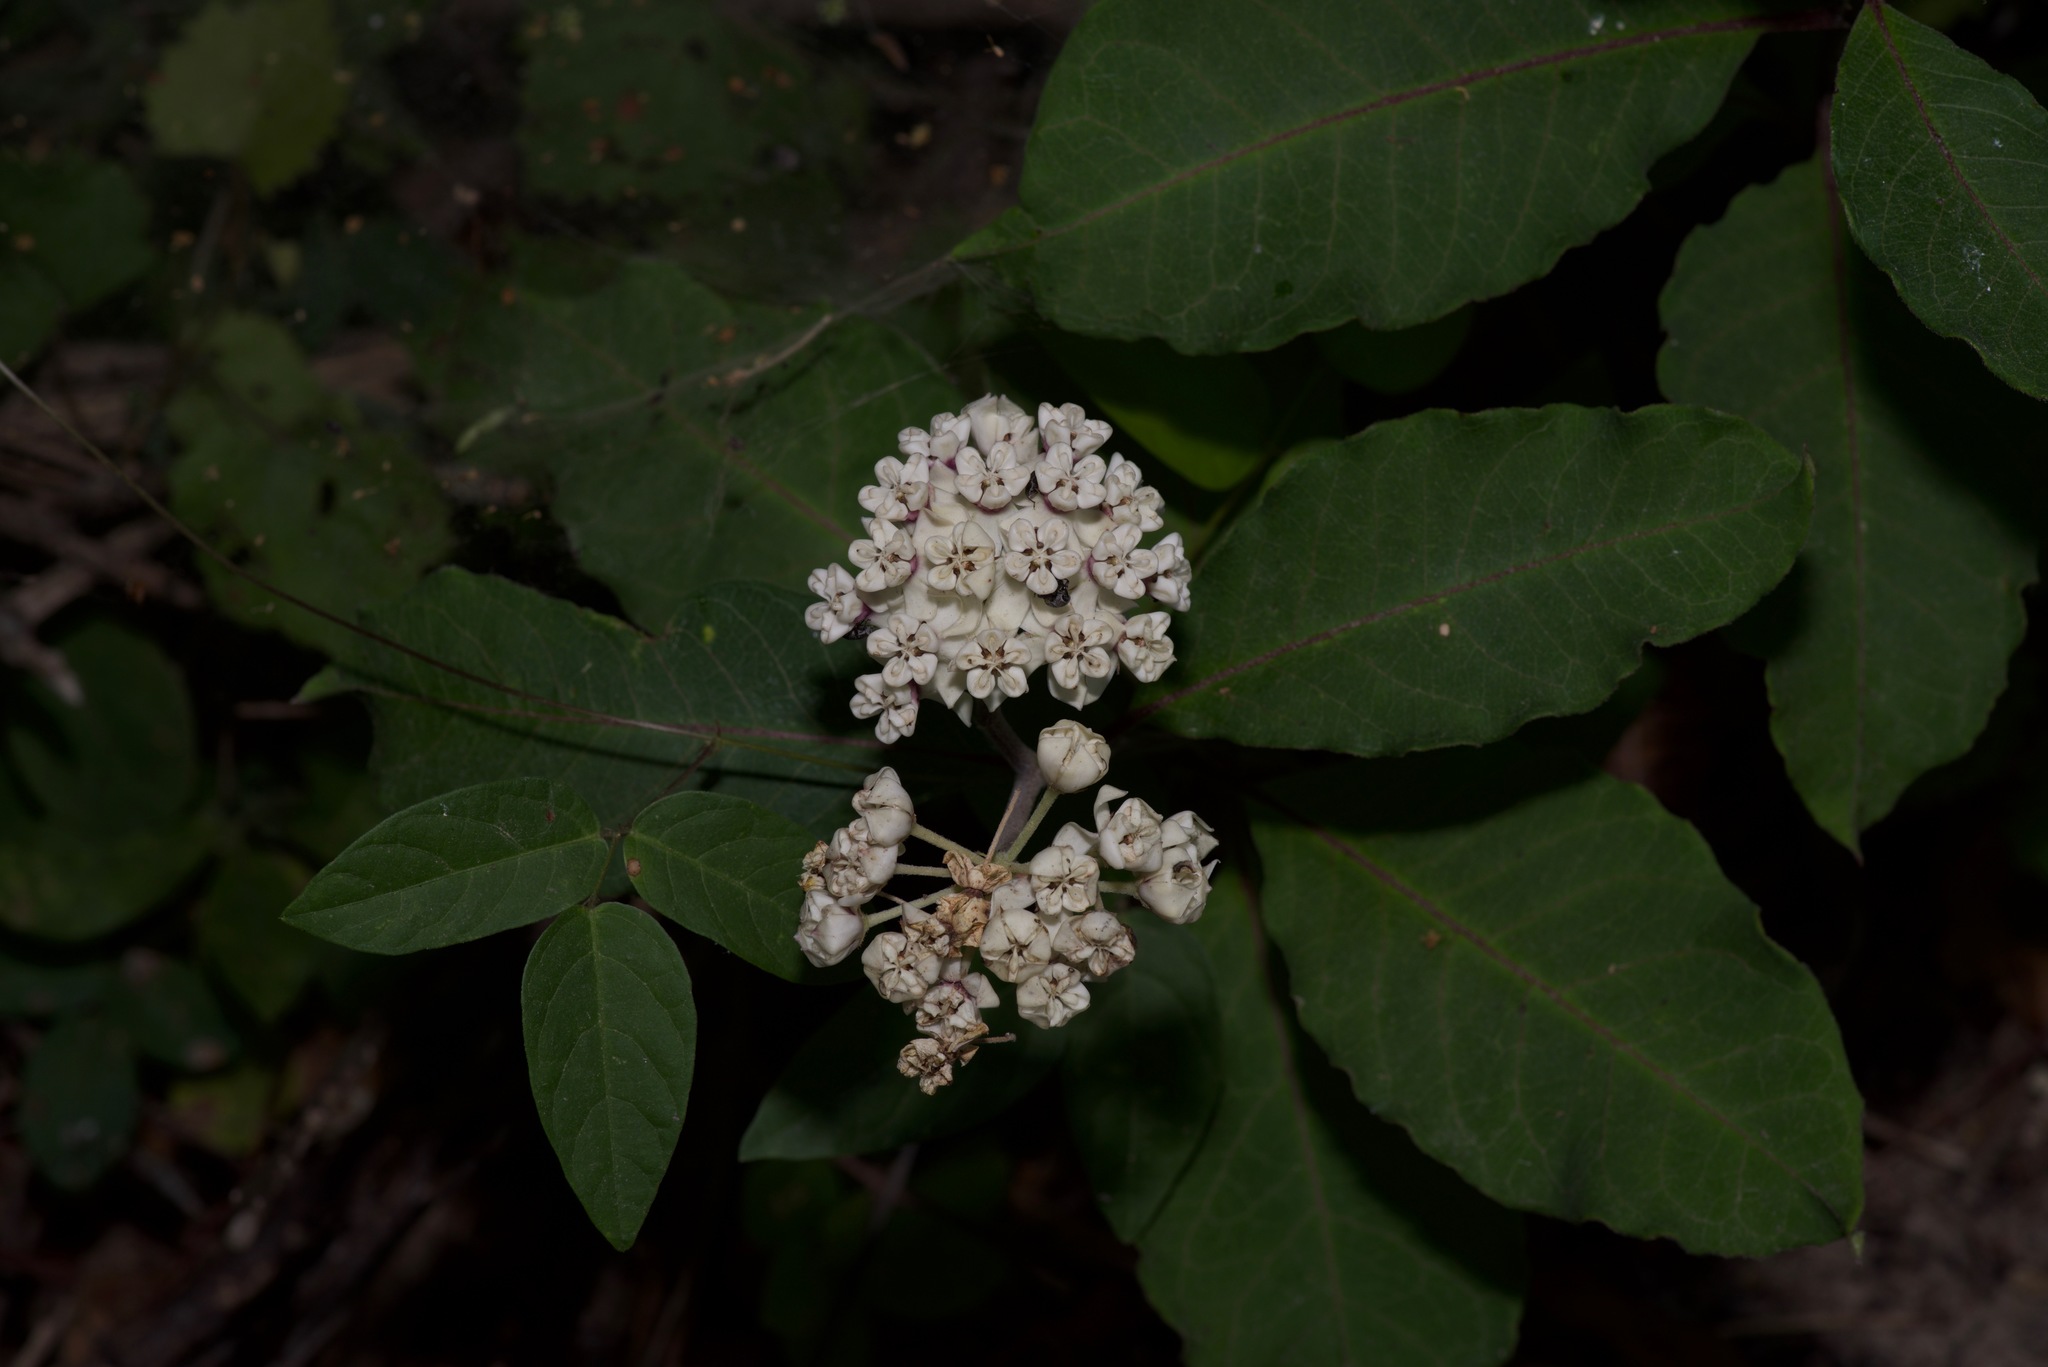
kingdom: Plantae
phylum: Tracheophyta
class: Magnoliopsida
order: Gentianales
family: Apocynaceae
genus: Asclepias
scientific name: Asclepias variegata
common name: Variegated milkweed
